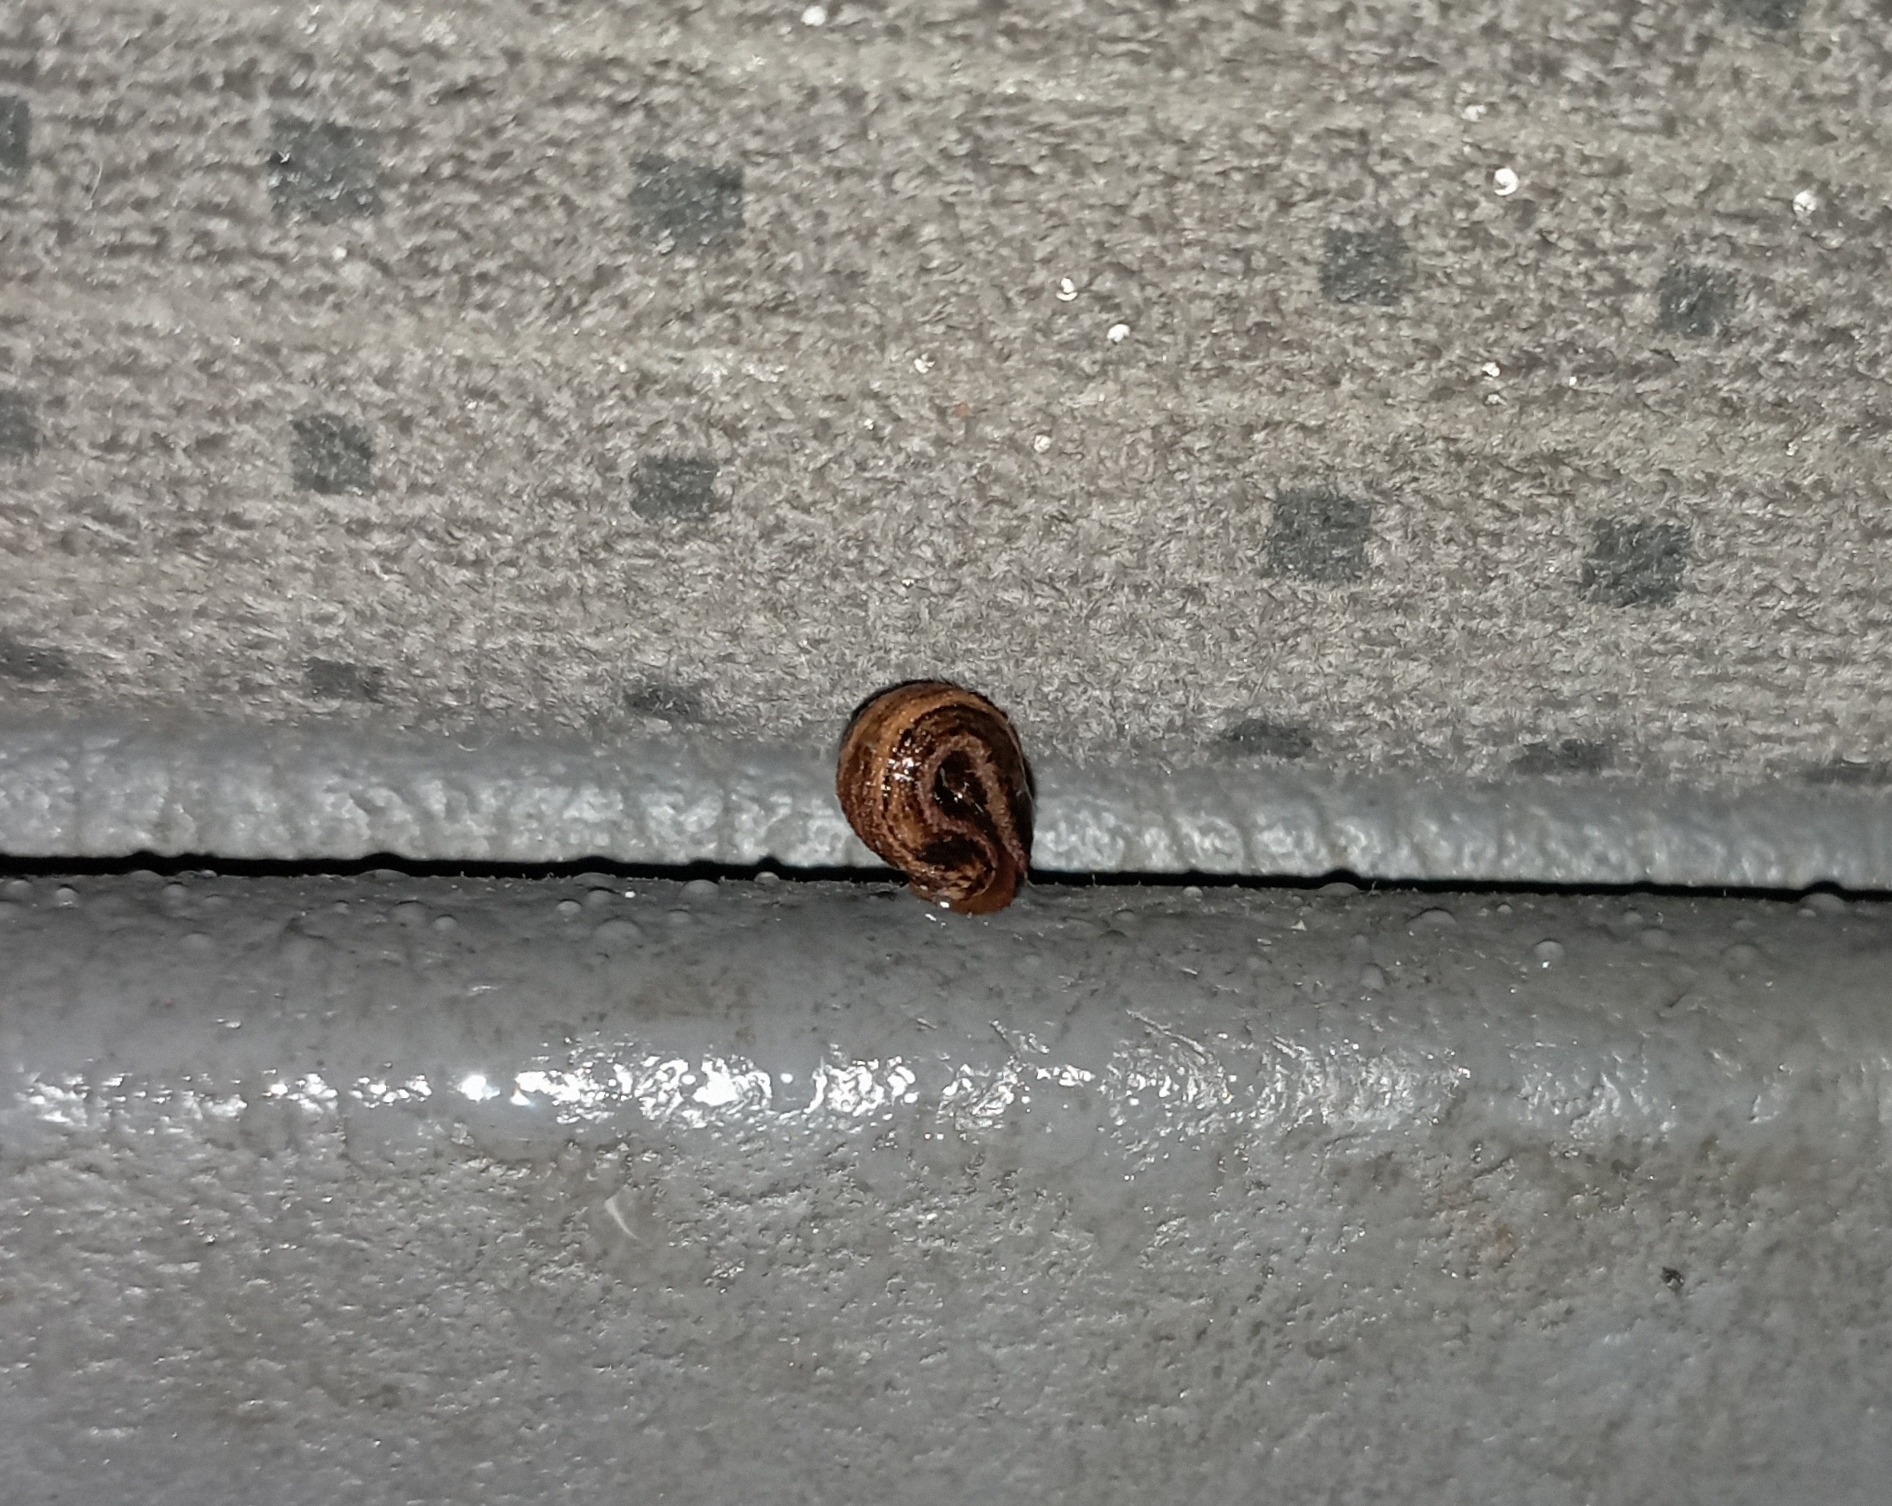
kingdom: Animalia
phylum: Annelida
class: Clitellata
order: Arhynchobdellida
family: Haemadipsidae
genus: Mesobdella
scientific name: Mesobdella gemmata
